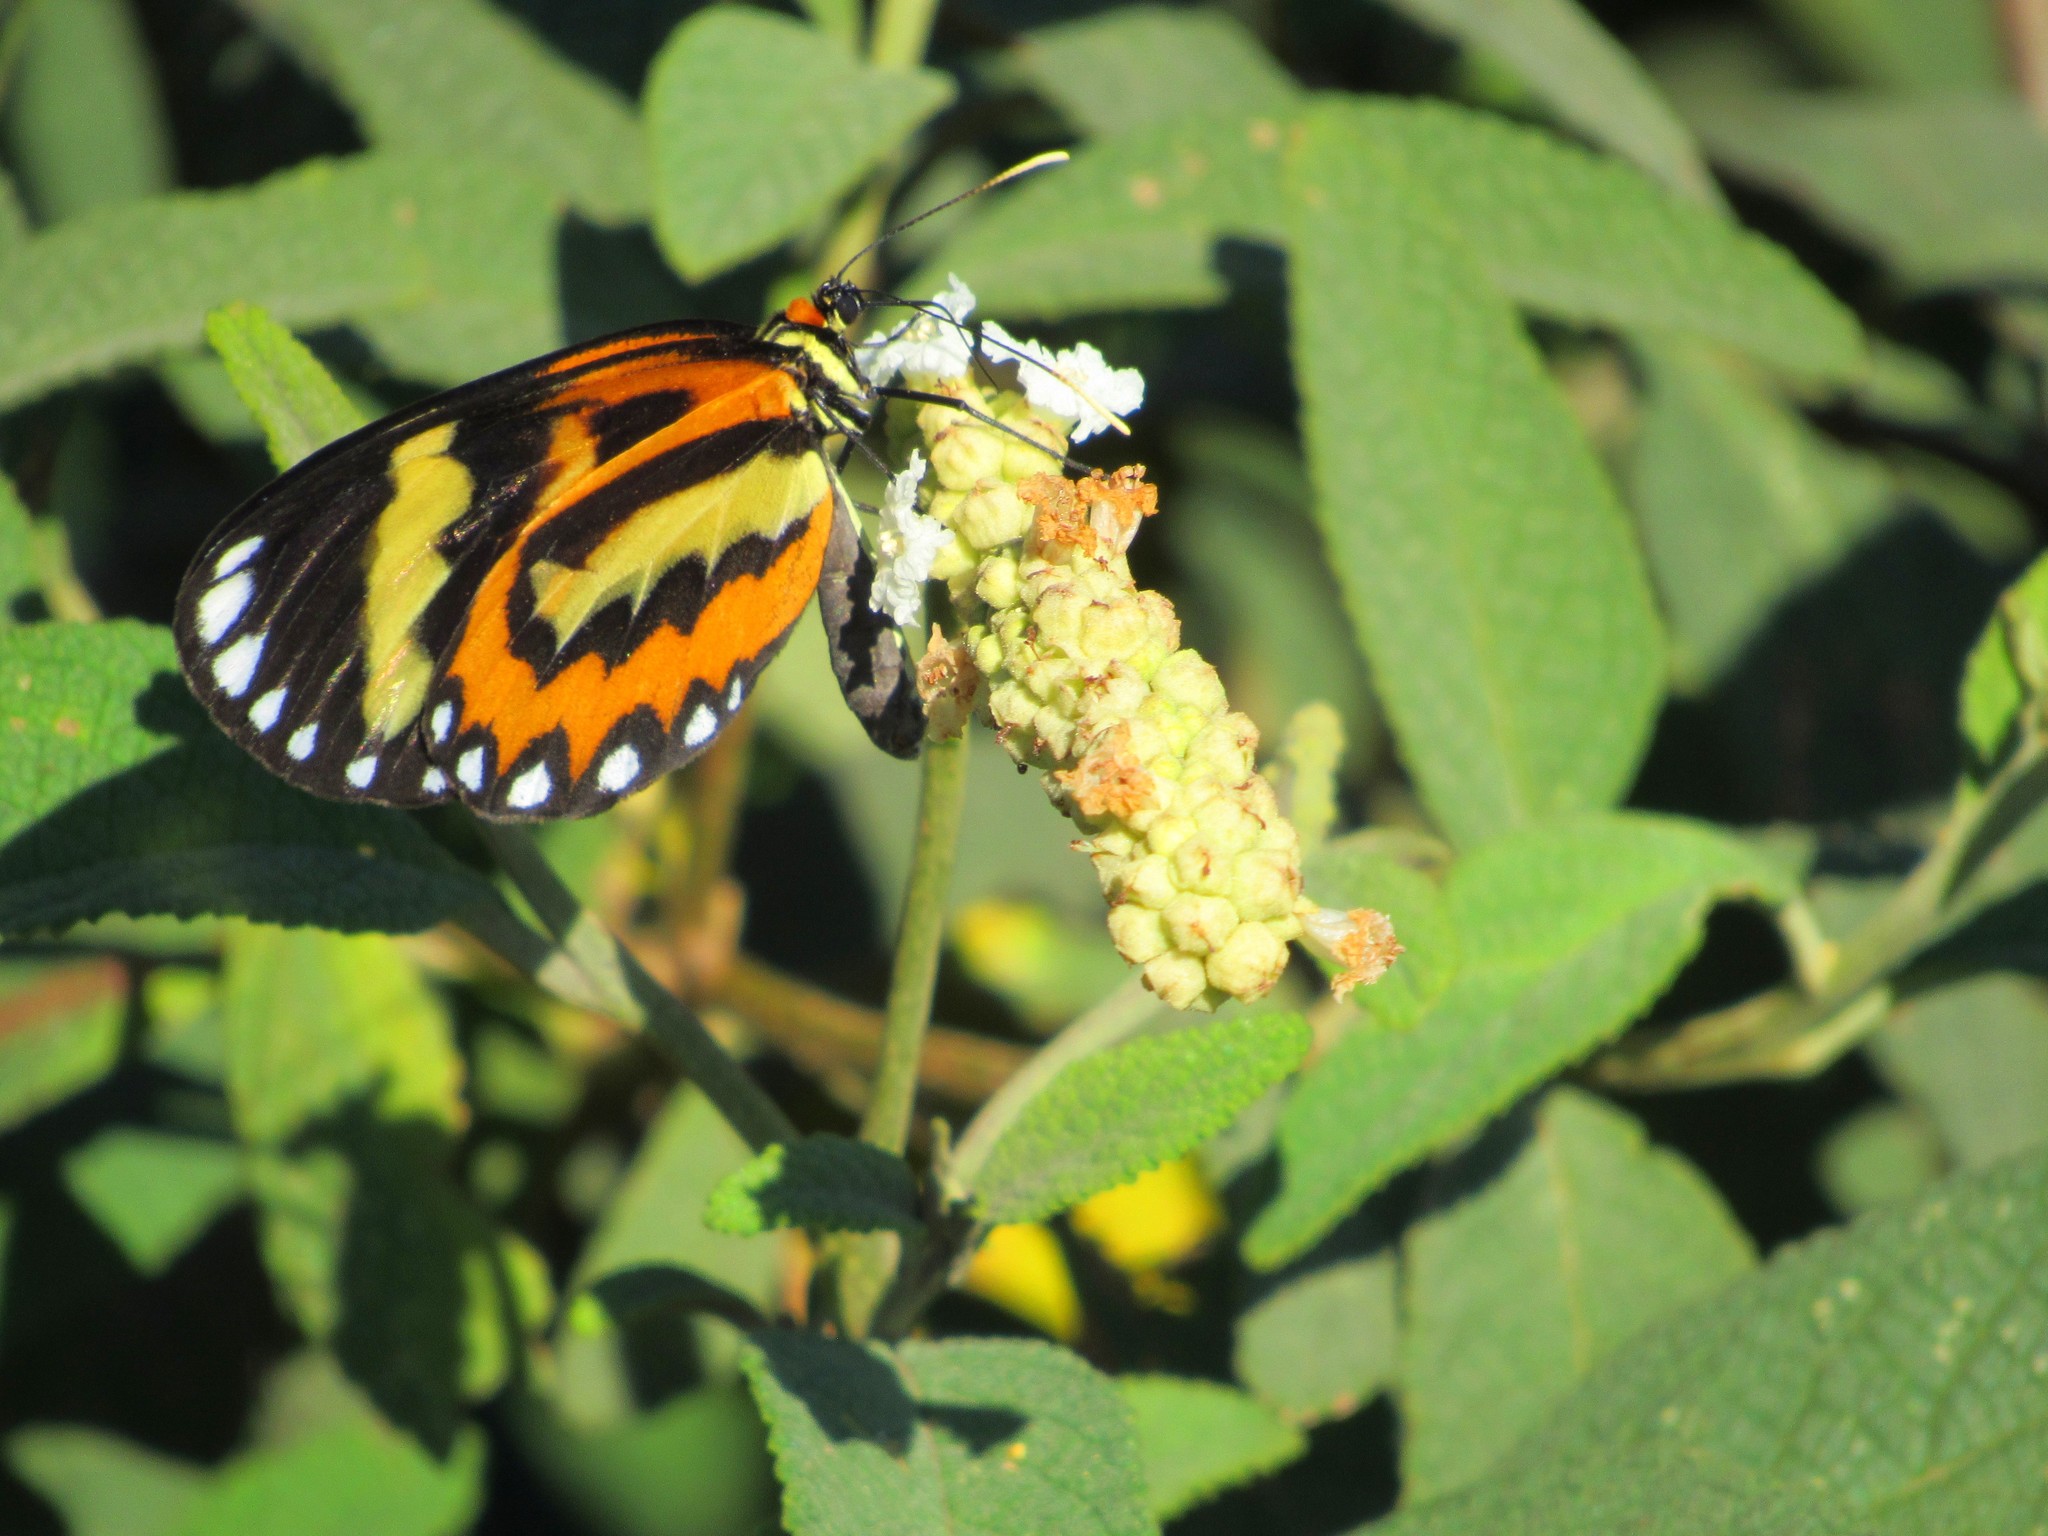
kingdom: Animalia
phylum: Arthropoda
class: Insecta
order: Lepidoptera
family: Nymphalidae
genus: Placidina
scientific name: Placidina euryanassa
